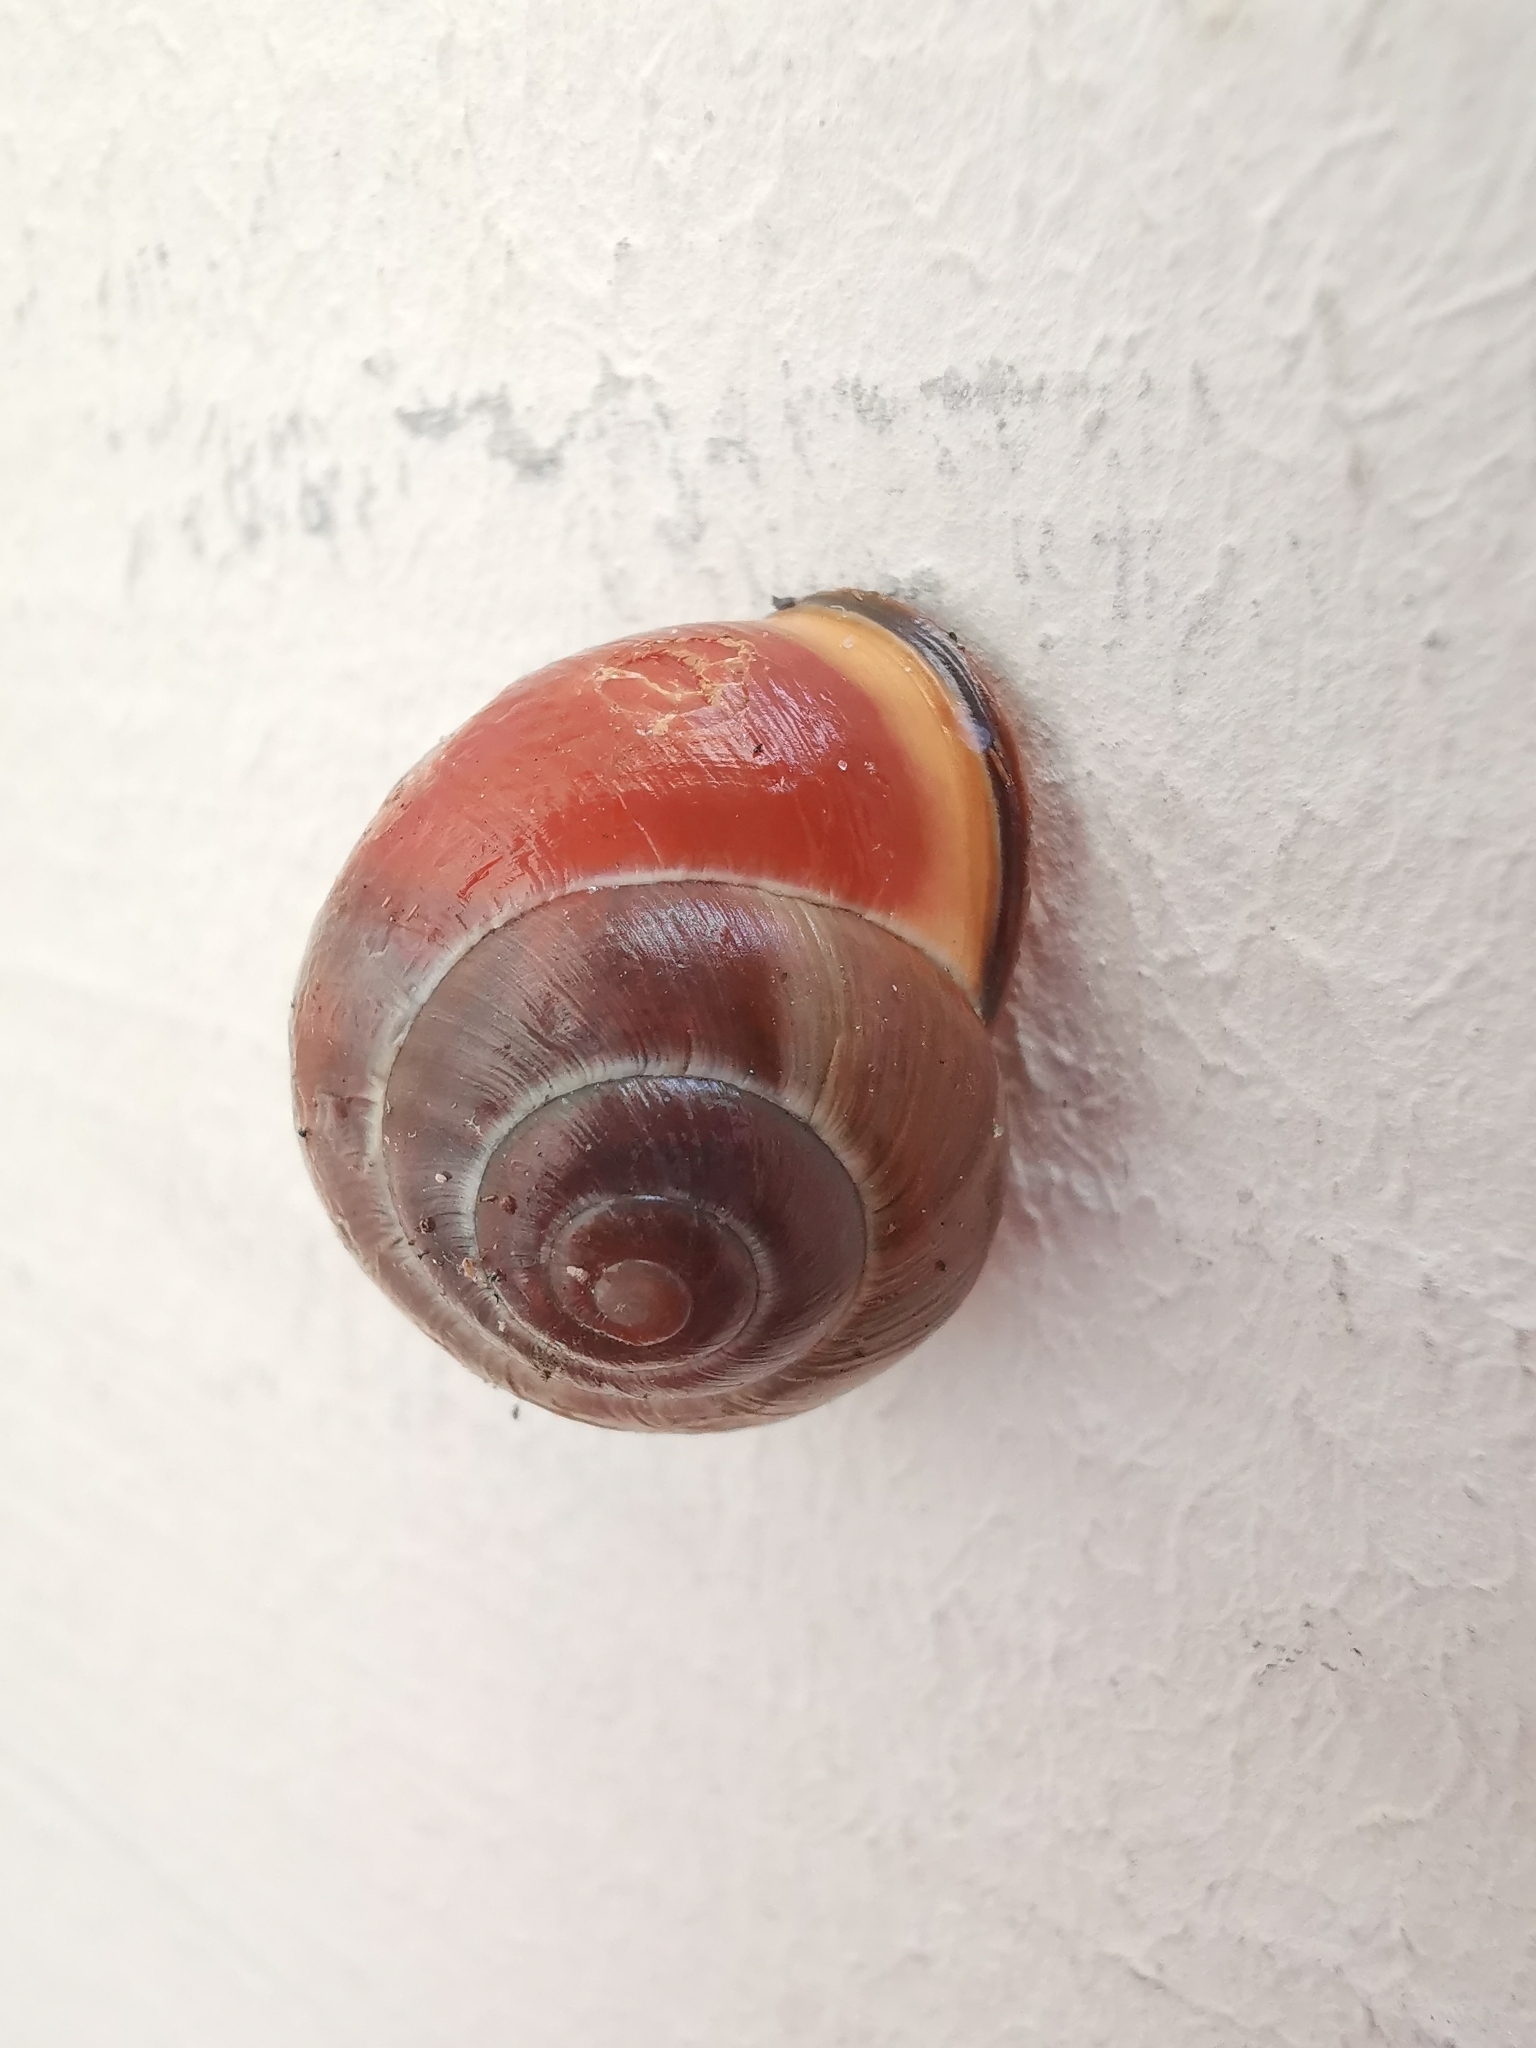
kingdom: Animalia
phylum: Mollusca
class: Gastropoda
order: Stylommatophora
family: Helicidae
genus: Cepaea
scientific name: Cepaea nemoralis
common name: Grovesnail
